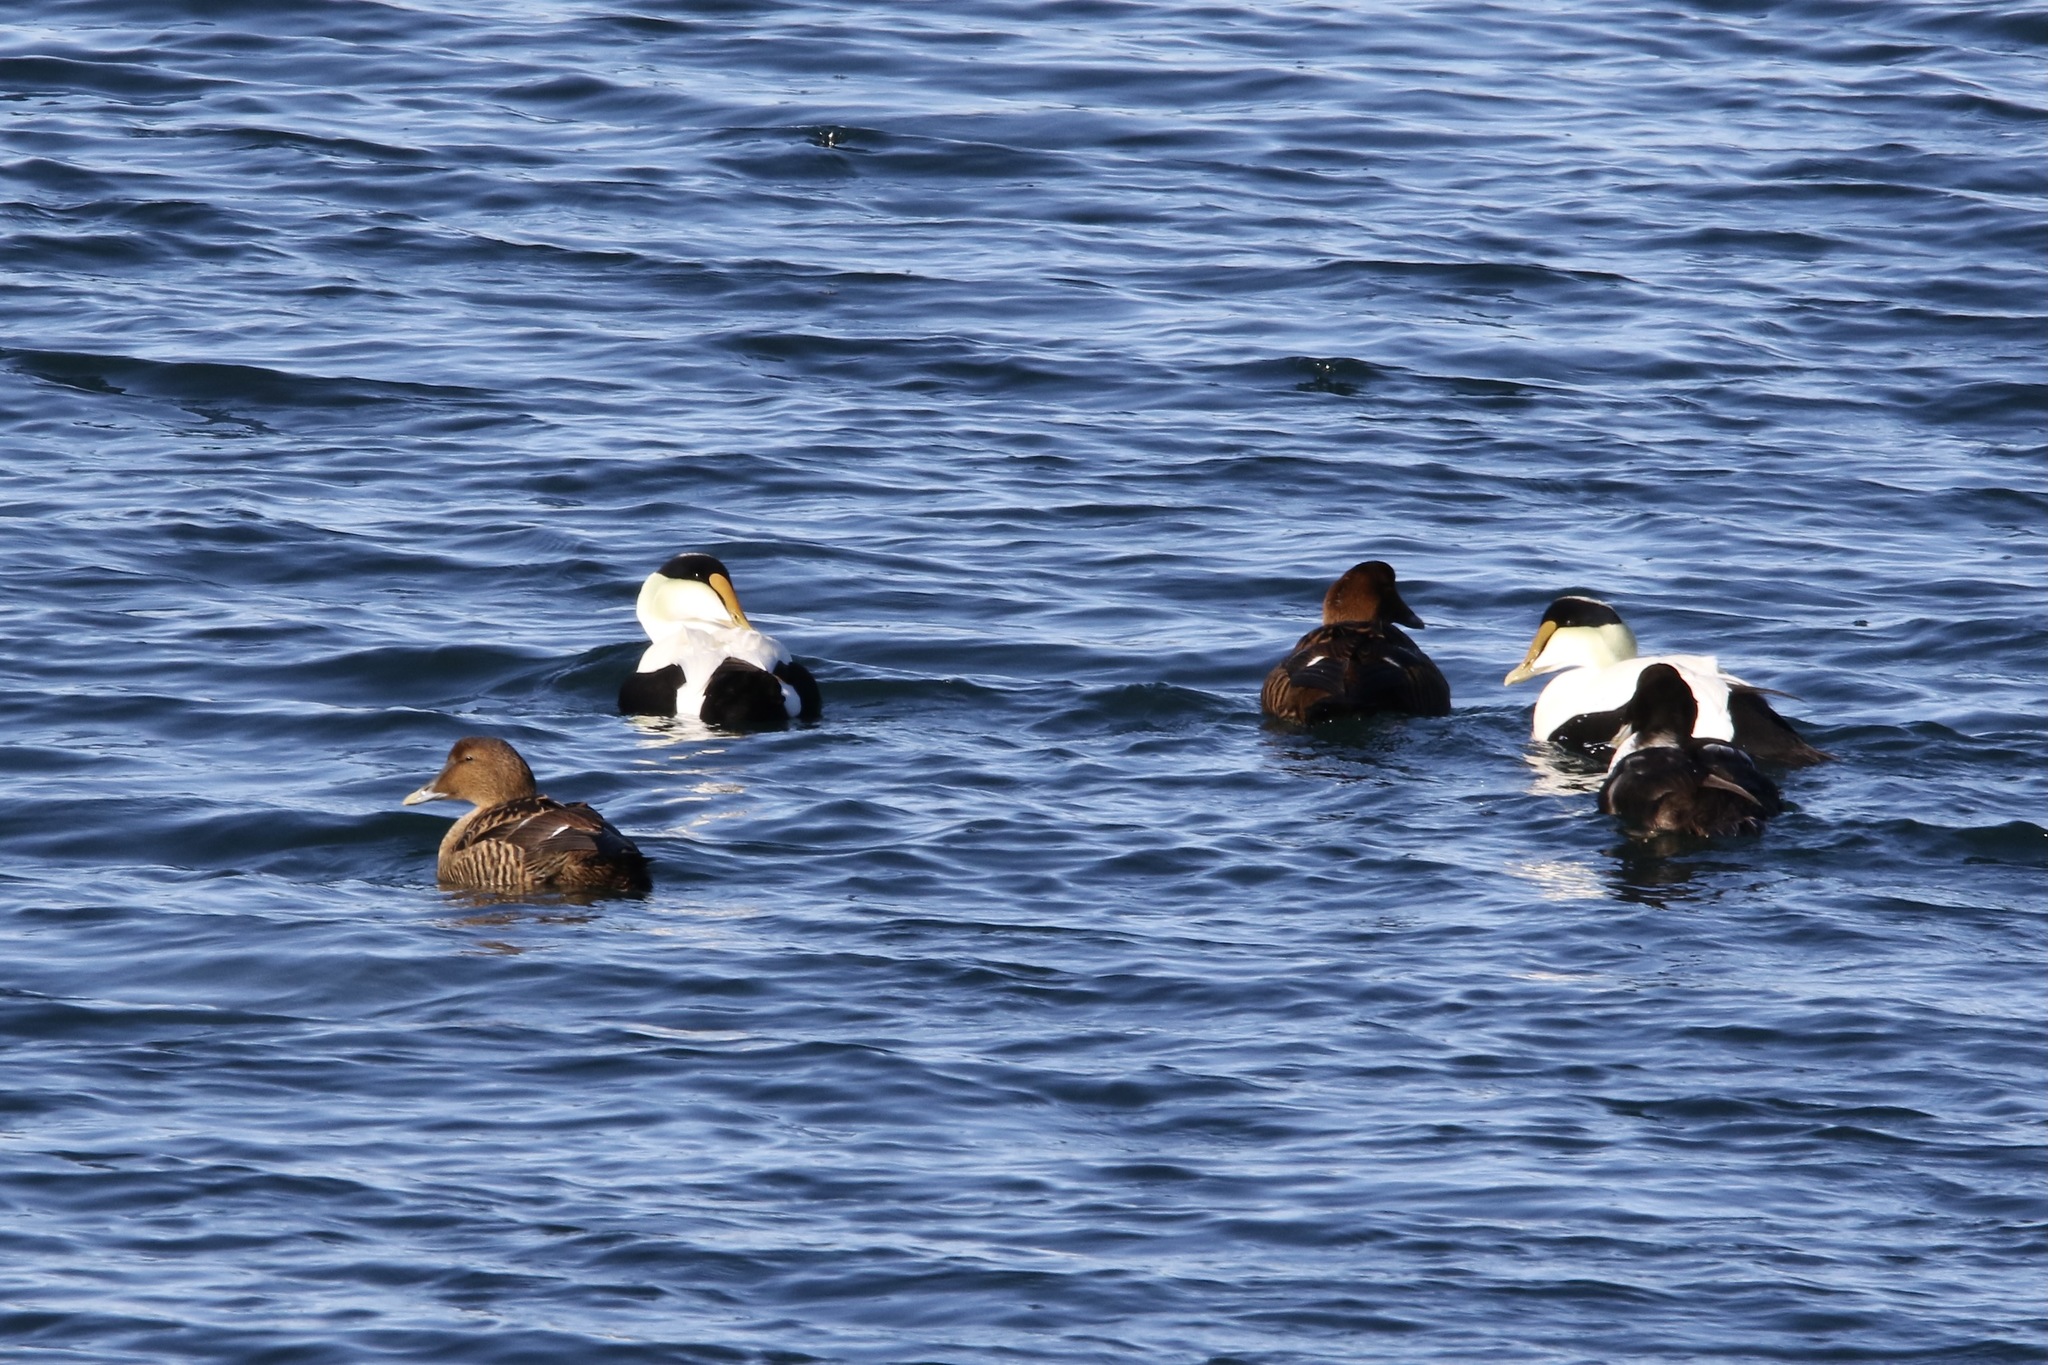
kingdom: Animalia
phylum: Chordata
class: Aves
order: Anseriformes
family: Anatidae
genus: Somateria
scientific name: Somateria mollissima
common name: Common eider
